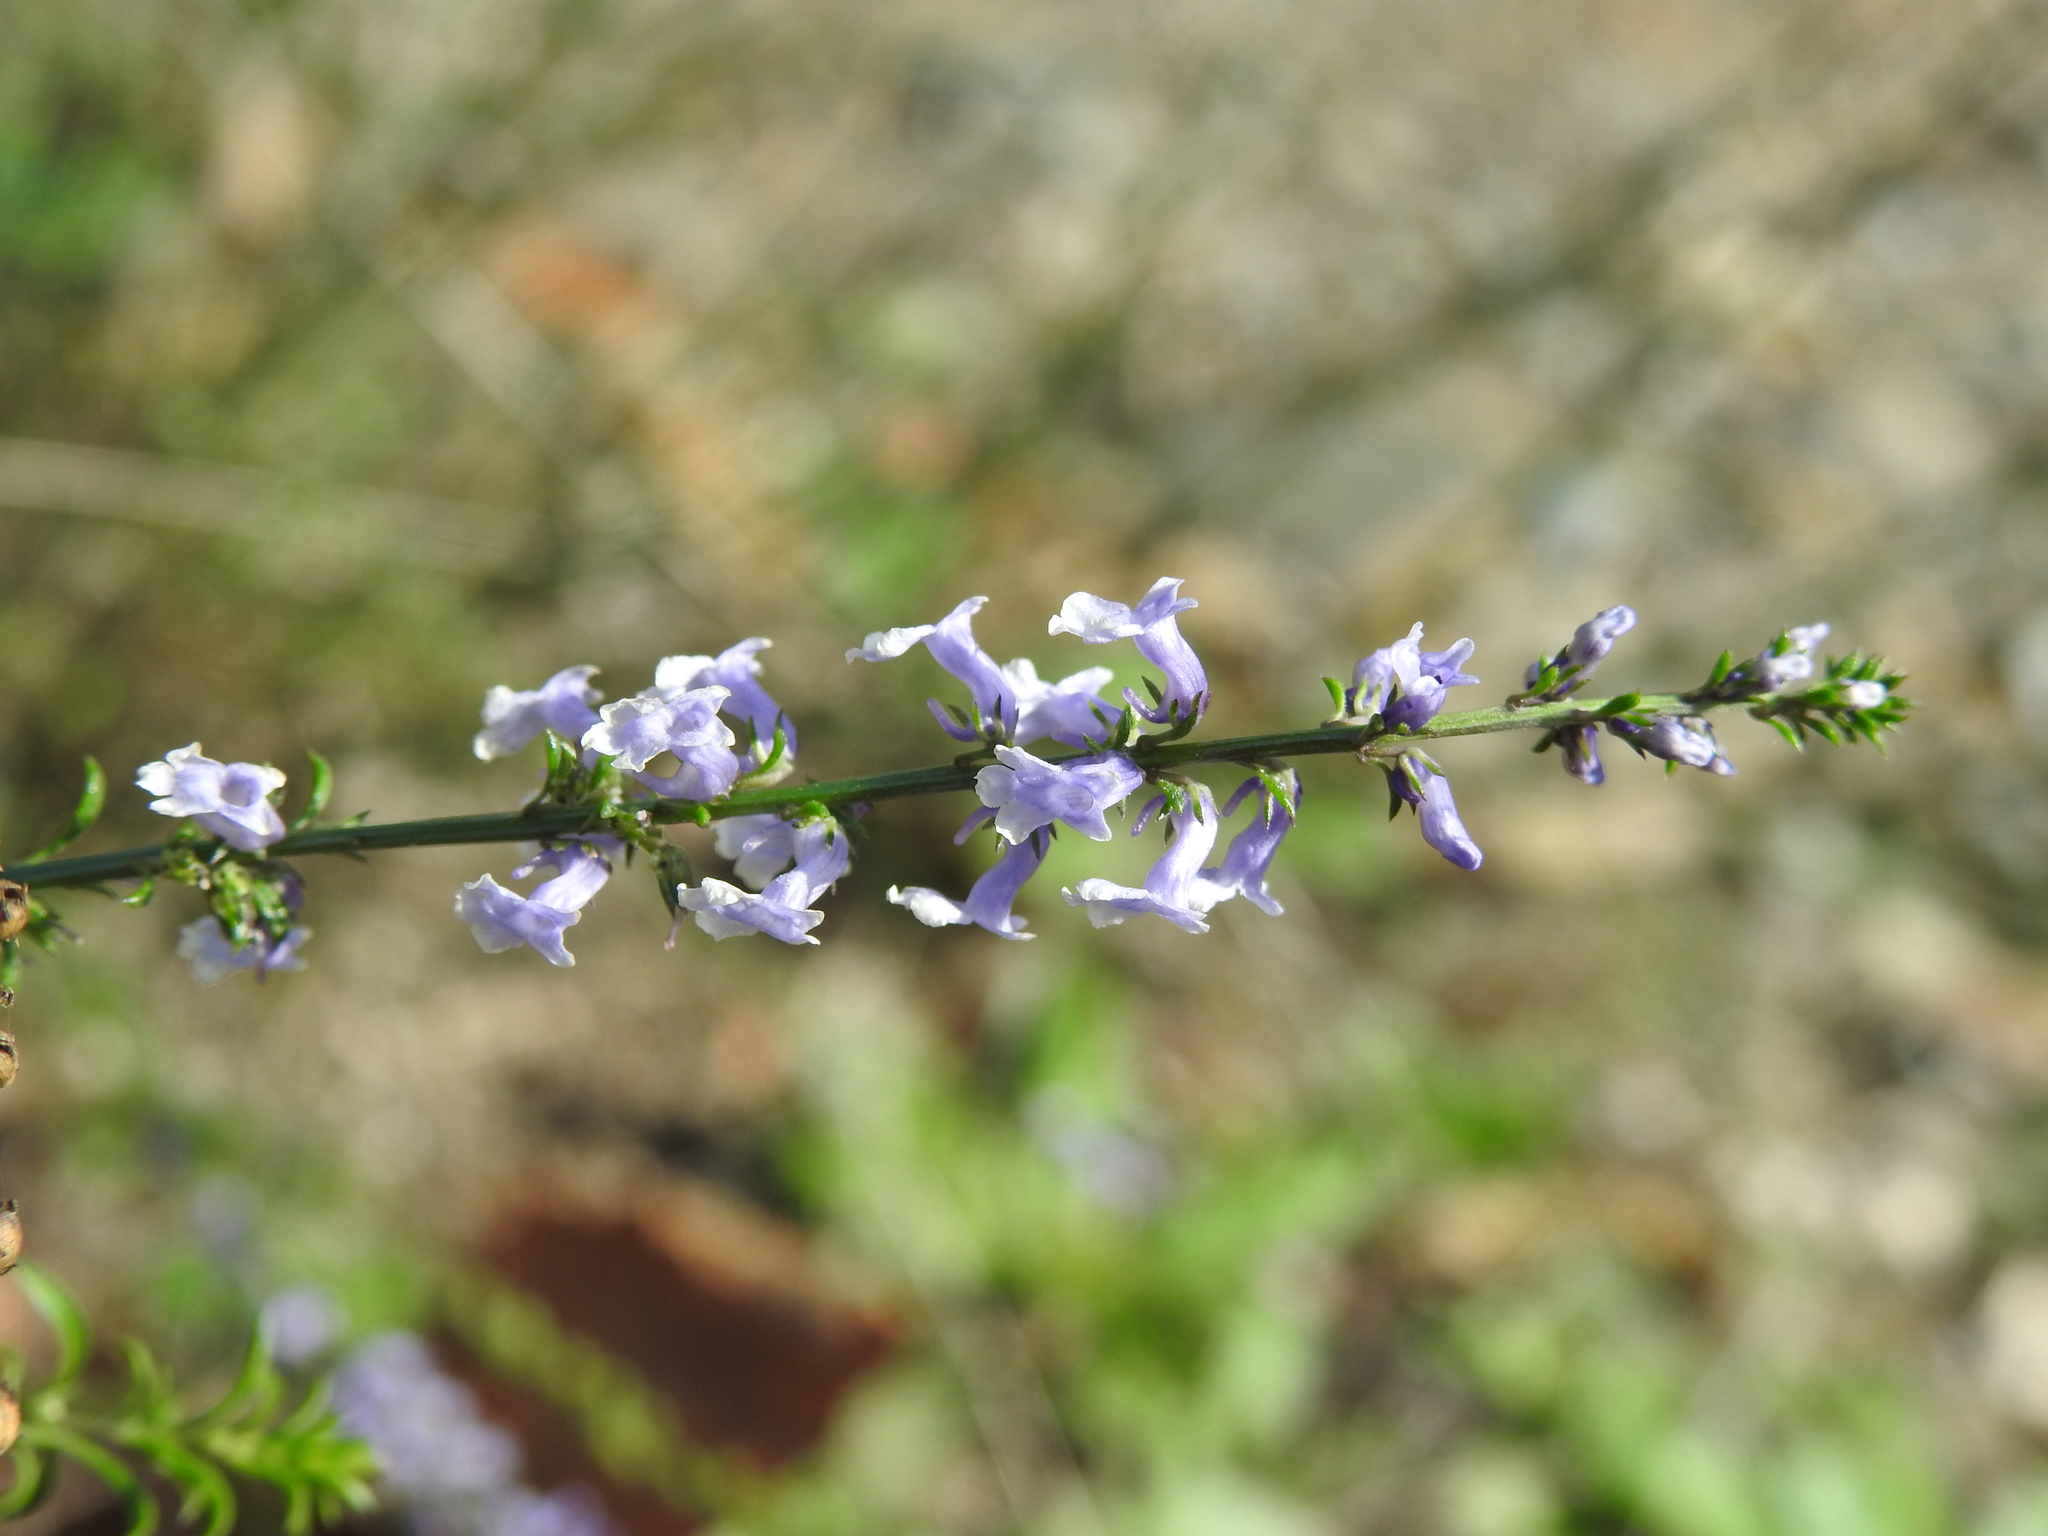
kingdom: Plantae
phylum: Tracheophyta
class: Magnoliopsida
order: Lamiales
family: Plantaginaceae
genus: Anarrhinum
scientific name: Anarrhinum bellidifolium
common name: Daisy-leaved toadflax
